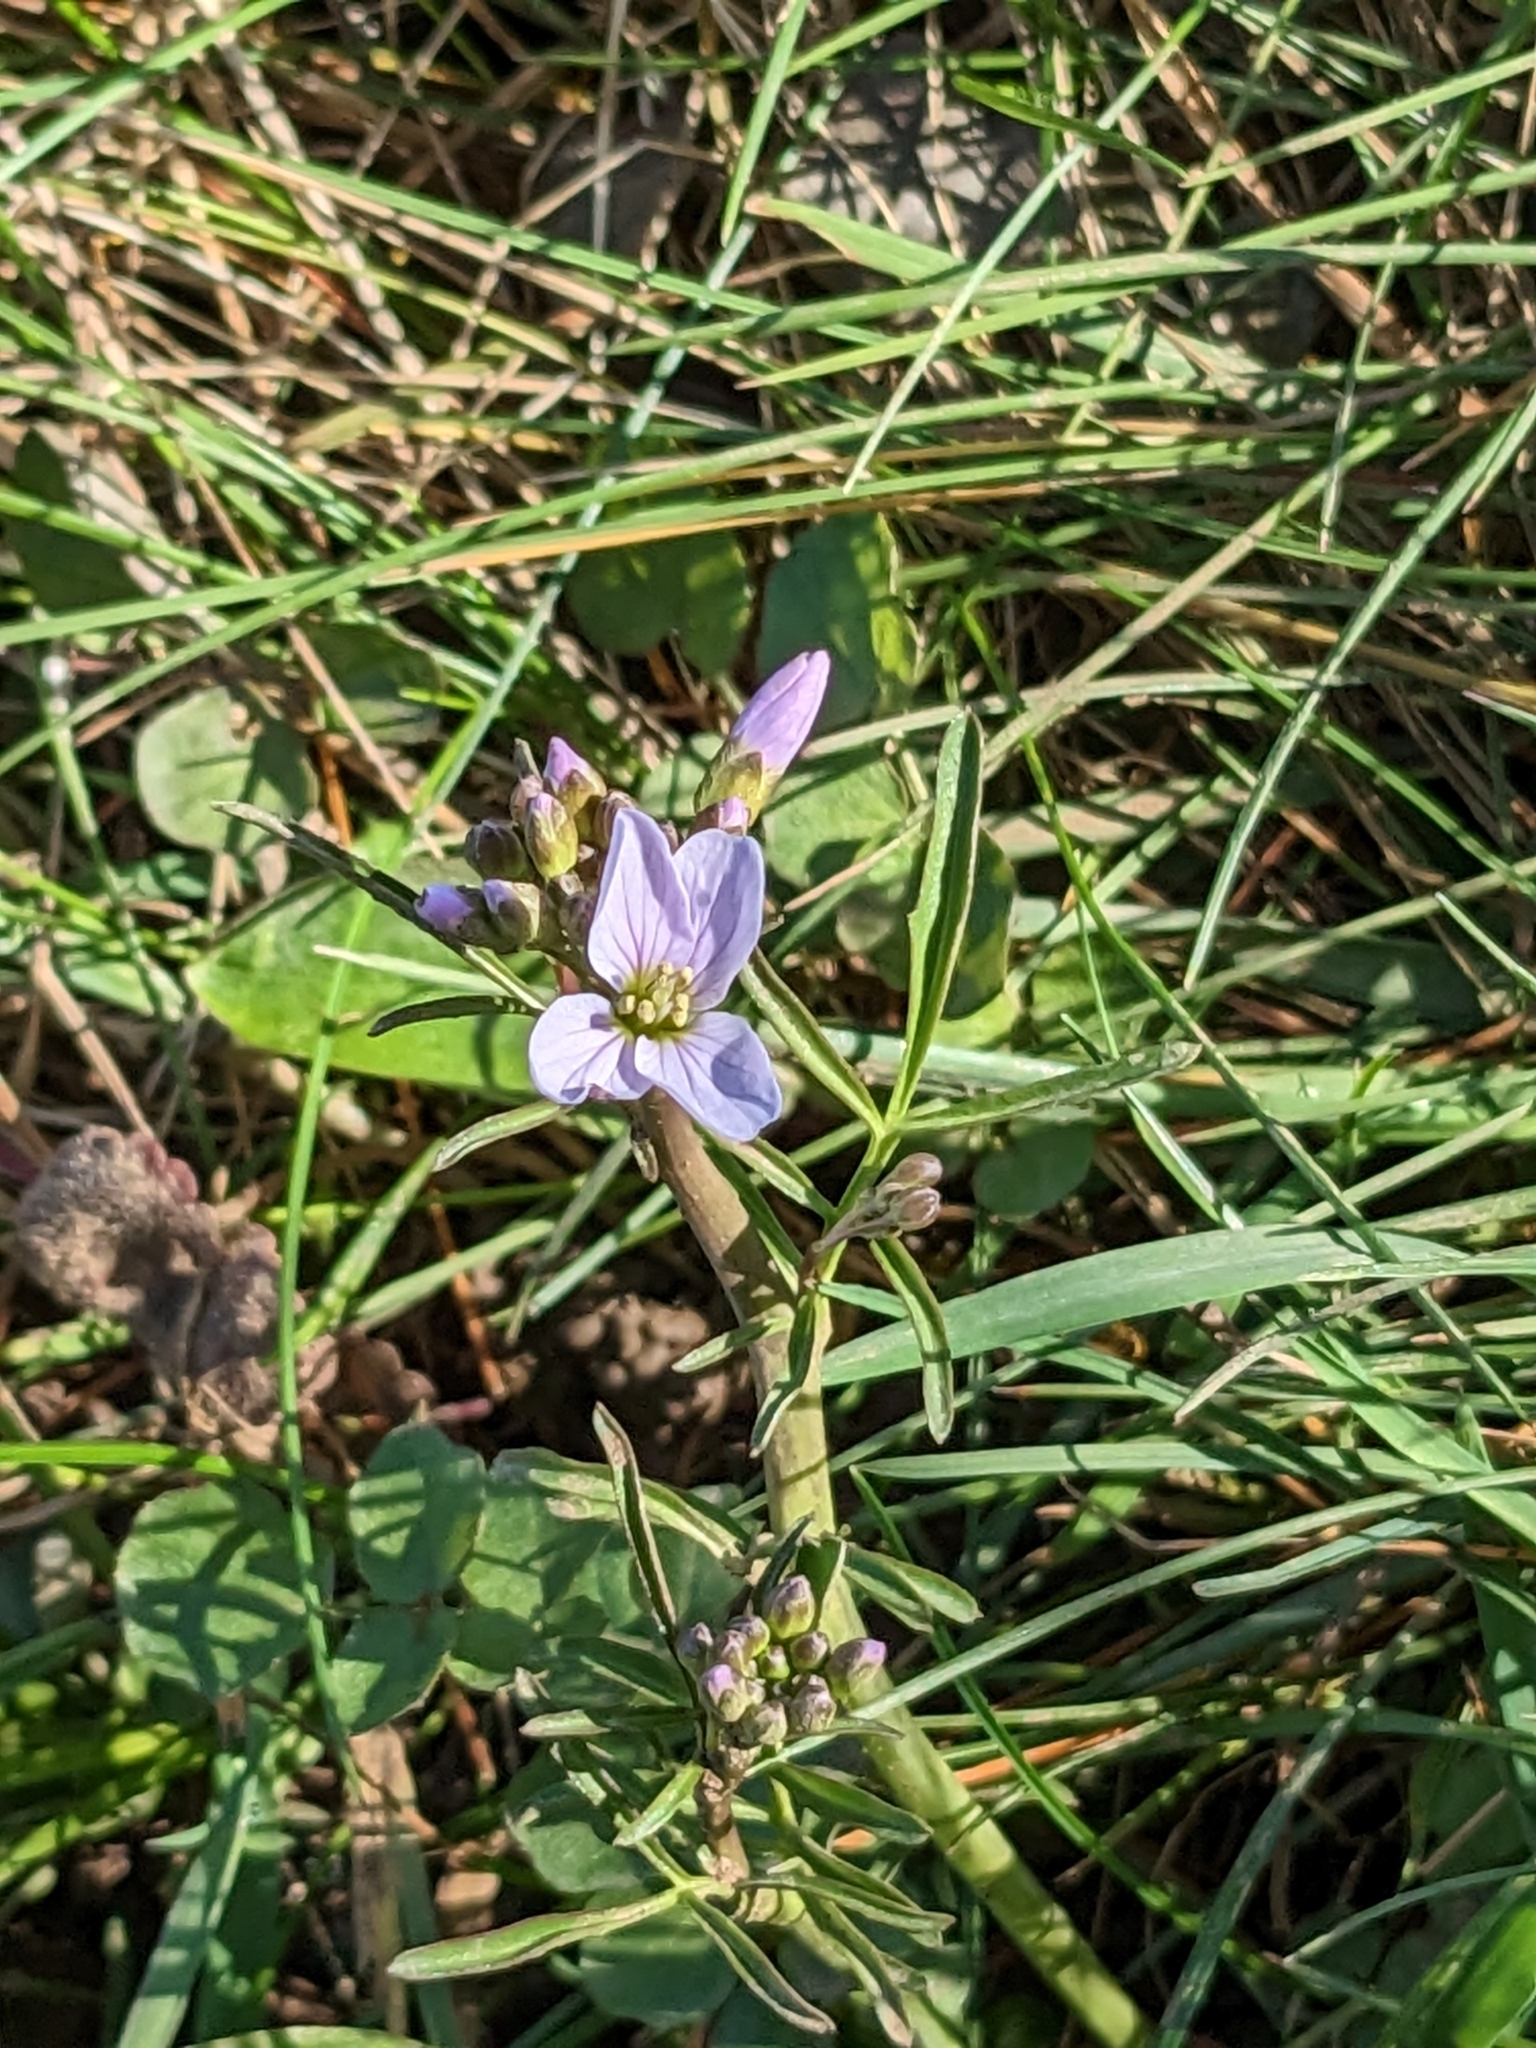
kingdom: Plantae
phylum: Tracheophyta
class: Magnoliopsida
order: Brassicales
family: Brassicaceae
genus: Cardamine
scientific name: Cardamine pratensis
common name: Cuckoo flower
